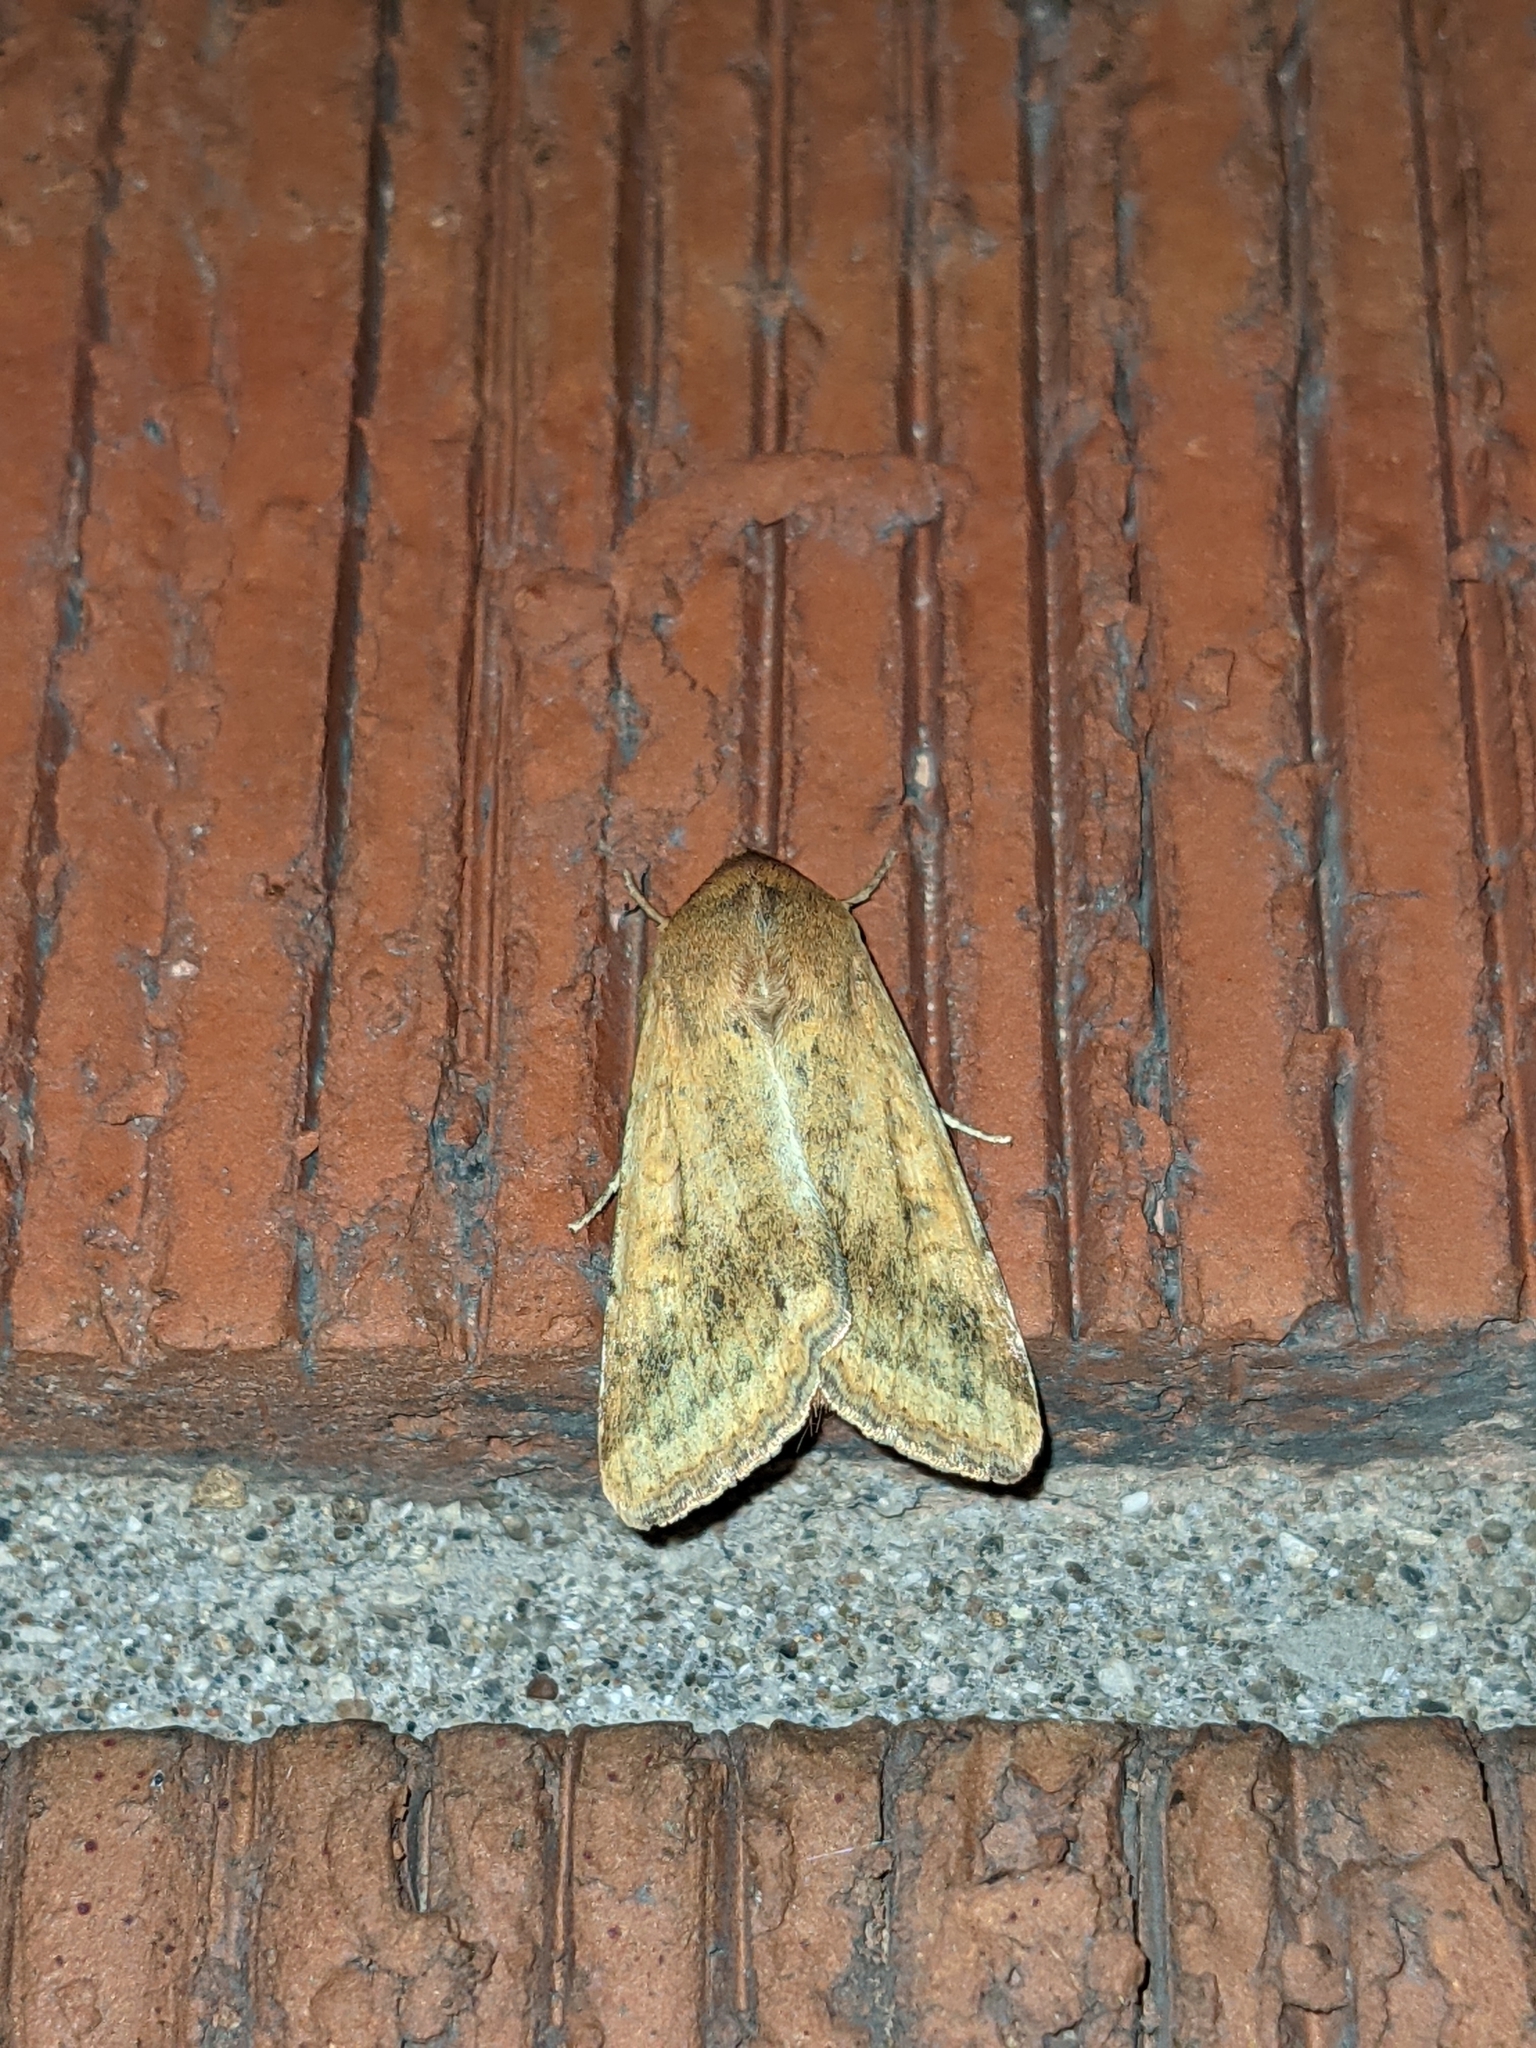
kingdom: Animalia
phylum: Arthropoda
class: Insecta
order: Lepidoptera
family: Noctuidae
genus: Helicoverpa
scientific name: Helicoverpa zea
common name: Bollworm
